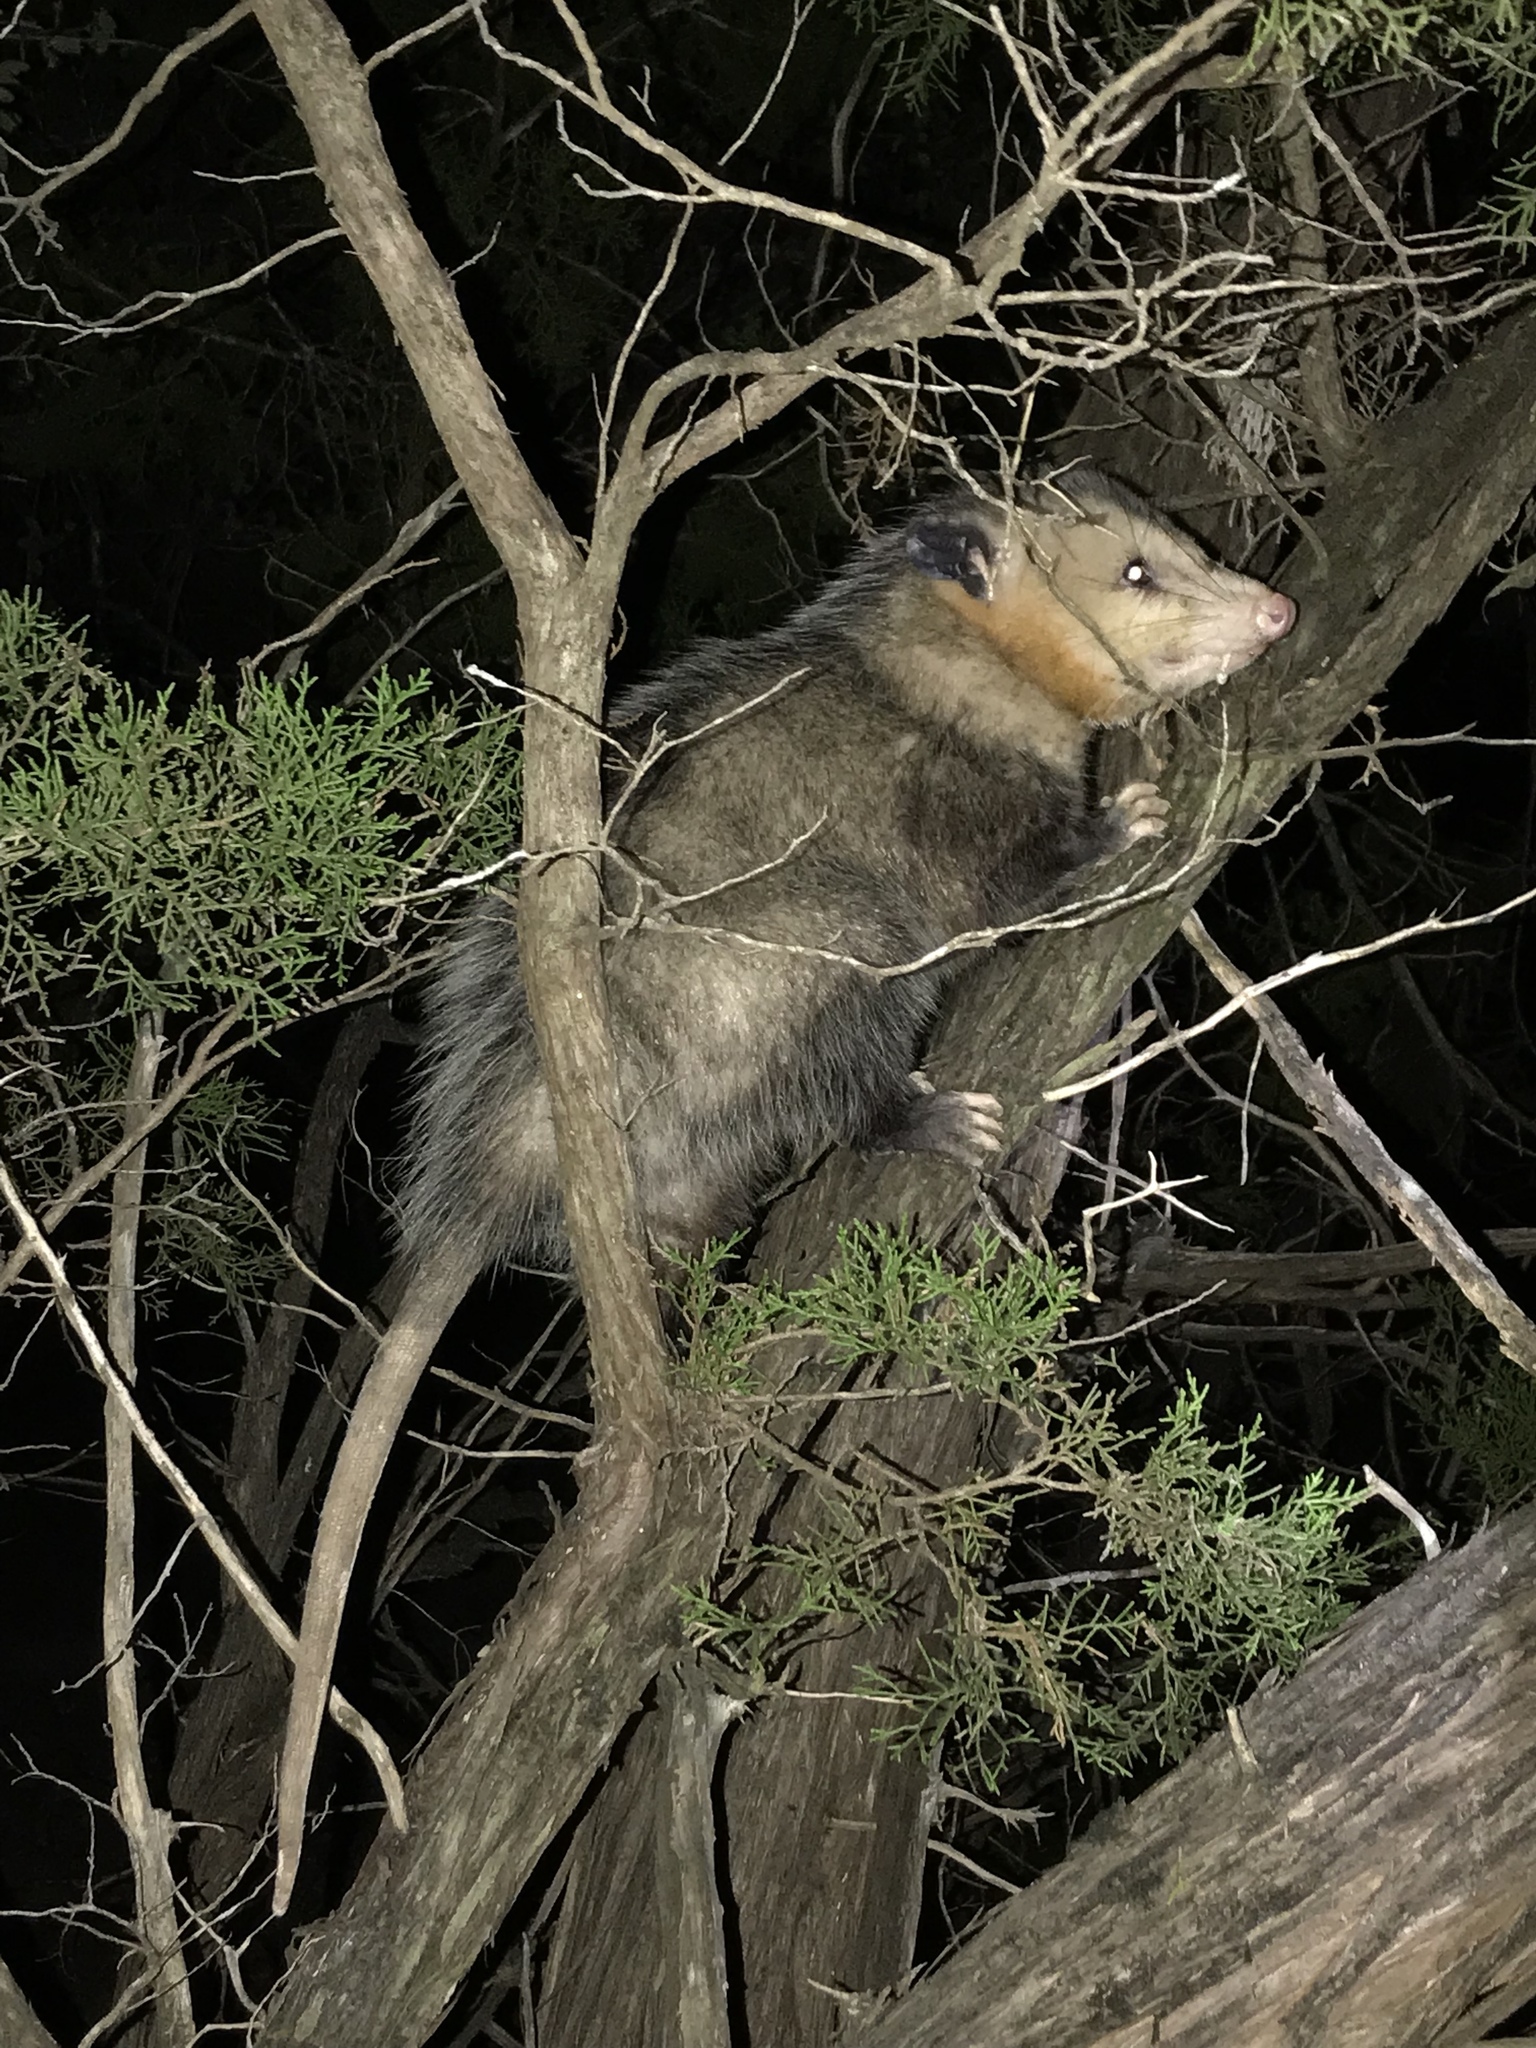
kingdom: Animalia
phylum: Chordata
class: Mammalia
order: Didelphimorphia
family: Didelphidae
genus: Didelphis
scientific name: Didelphis virginiana
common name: Virginia opossum
